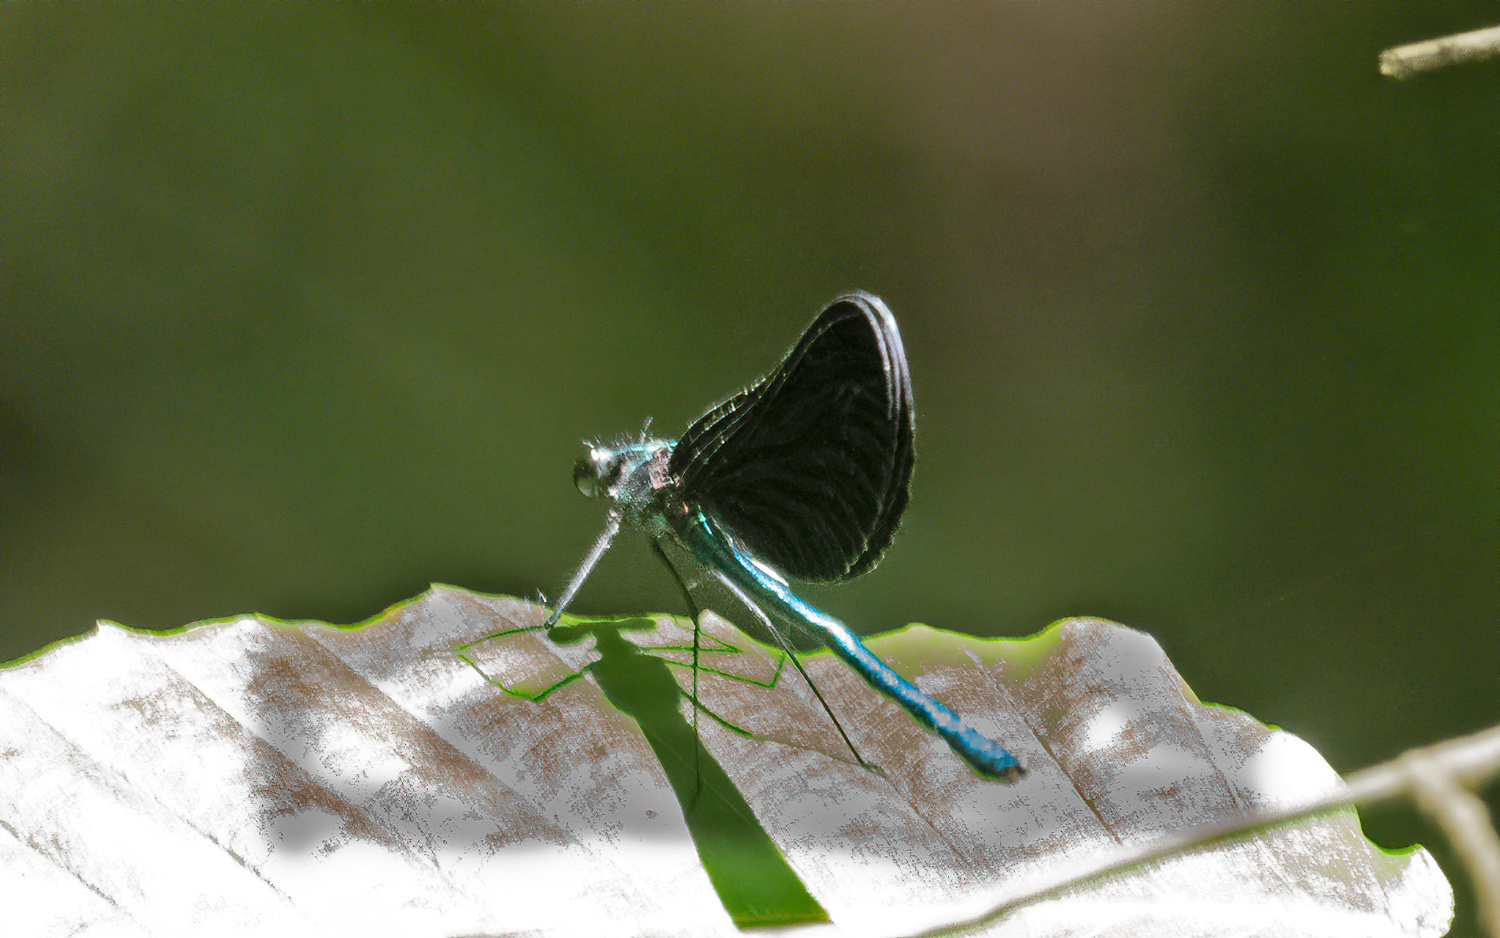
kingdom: Animalia
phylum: Arthropoda
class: Insecta
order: Odonata
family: Calopterygidae
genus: Calopteryx
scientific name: Calopteryx maculata
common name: Ebony jewelwing
